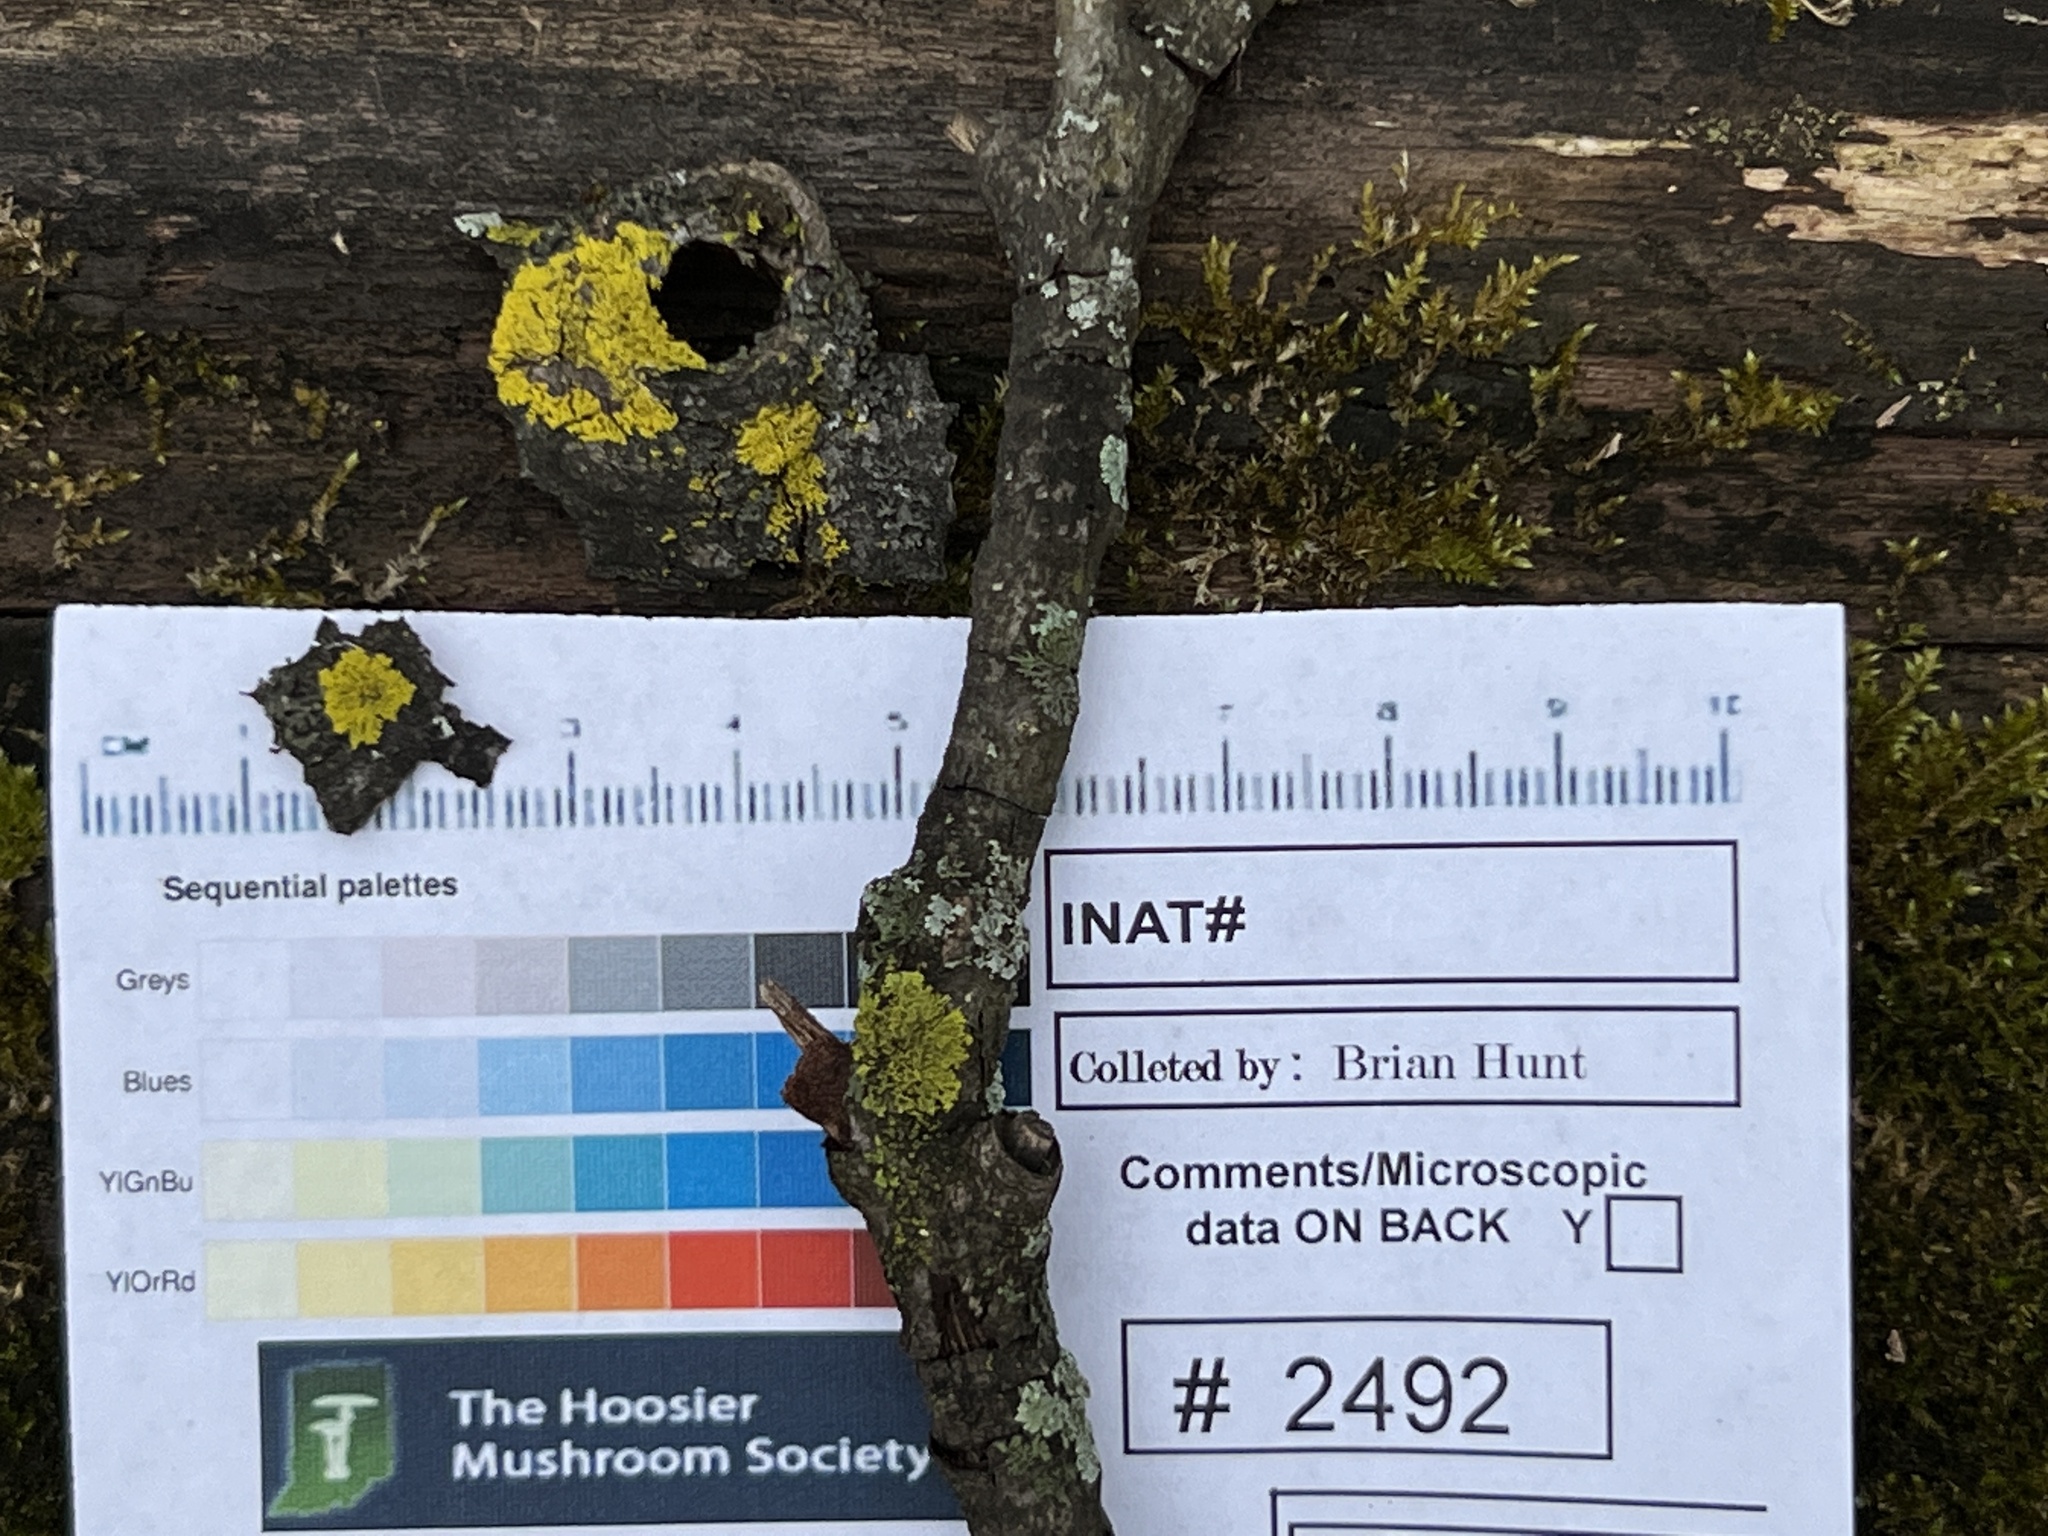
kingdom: Fungi
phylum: Ascomycota
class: Candelariomycetes
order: Candelariales
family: Candelariaceae
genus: Candelaria
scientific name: Candelaria concolor
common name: Candleflame lichen
